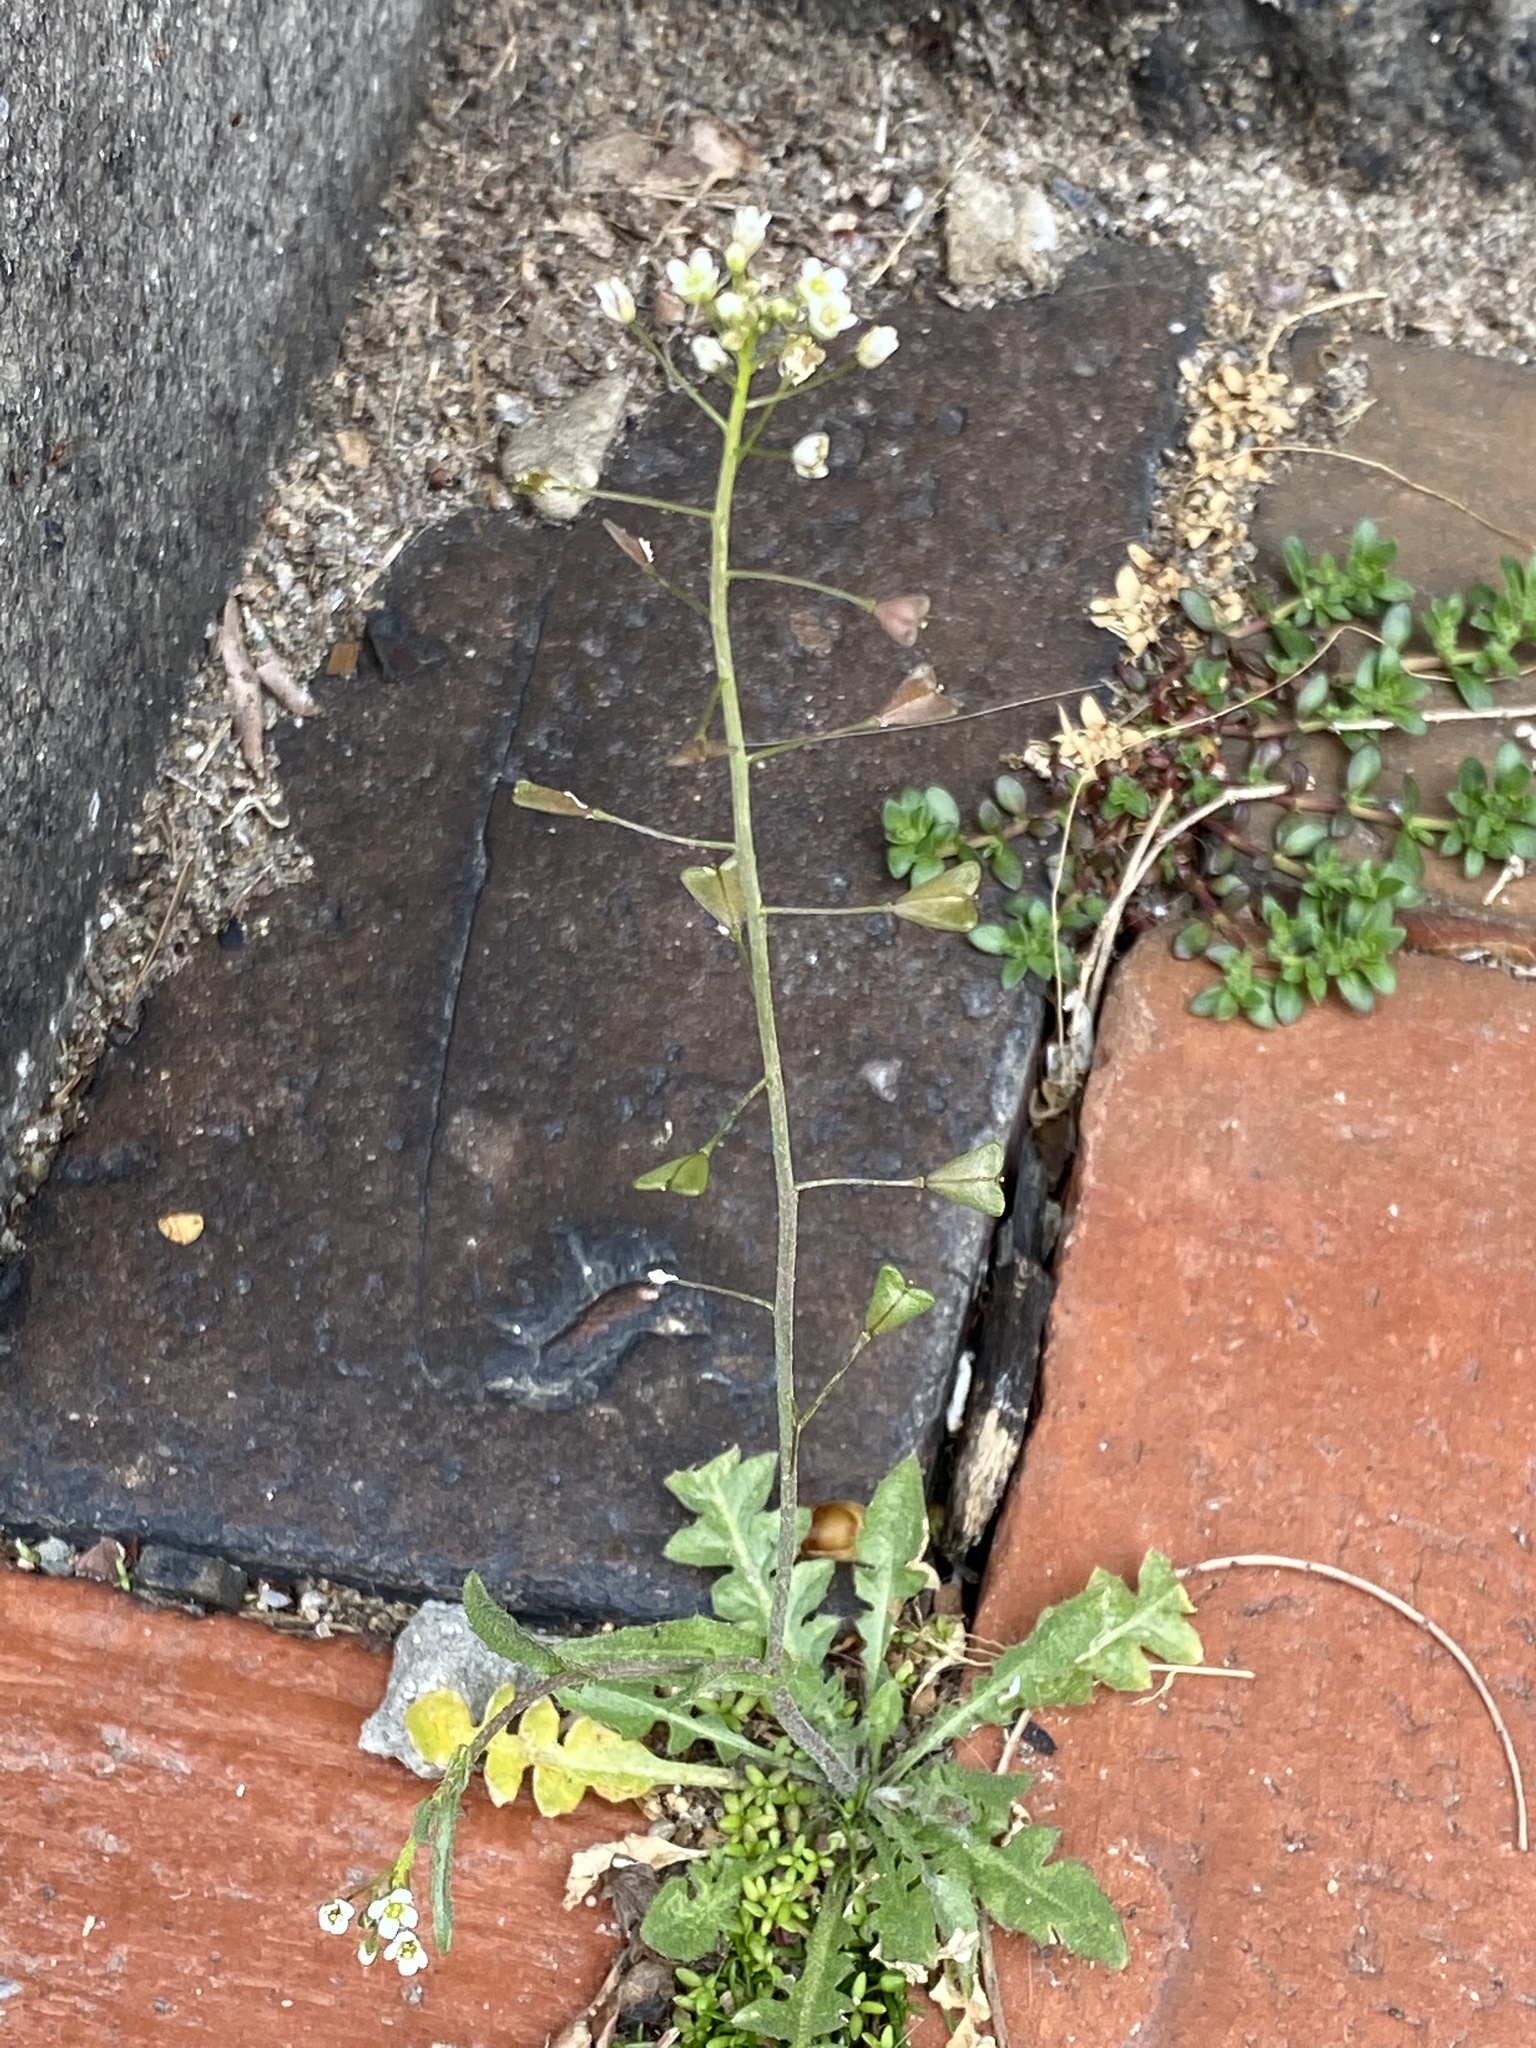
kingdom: Plantae
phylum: Tracheophyta
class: Magnoliopsida
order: Brassicales
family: Brassicaceae
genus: Capsella
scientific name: Capsella bursa-pastoris
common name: Shepherd's purse
